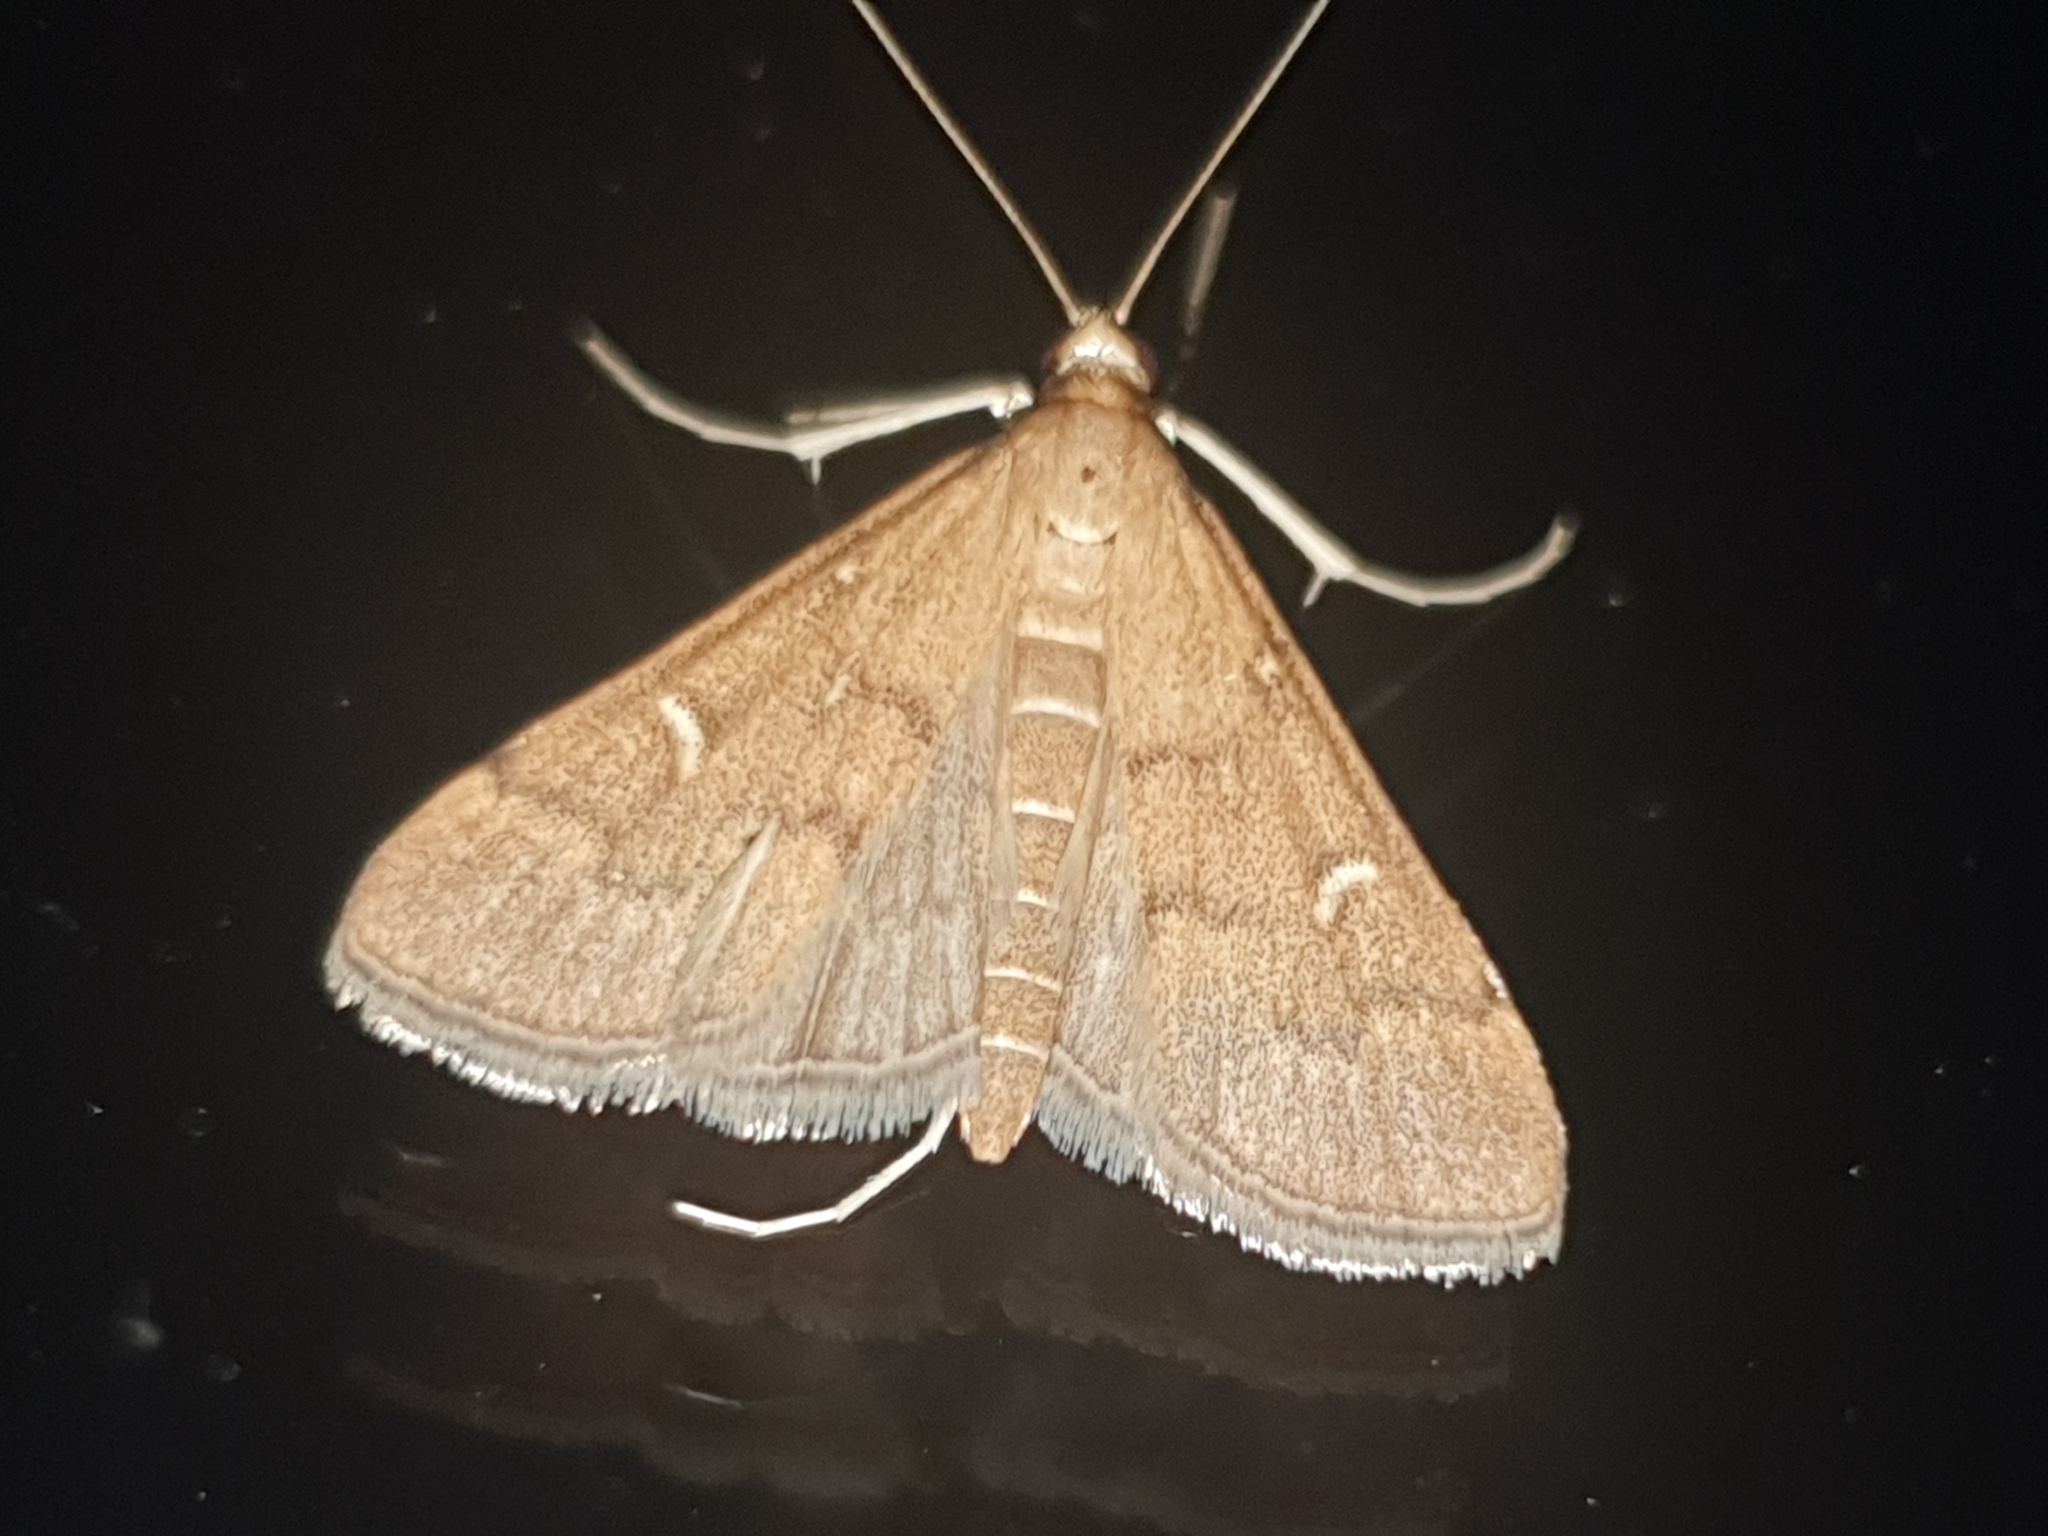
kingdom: Animalia
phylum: Arthropoda
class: Insecta
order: Lepidoptera
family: Crambidae
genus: Stenia
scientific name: Stenia Dolicharthria punctalis
